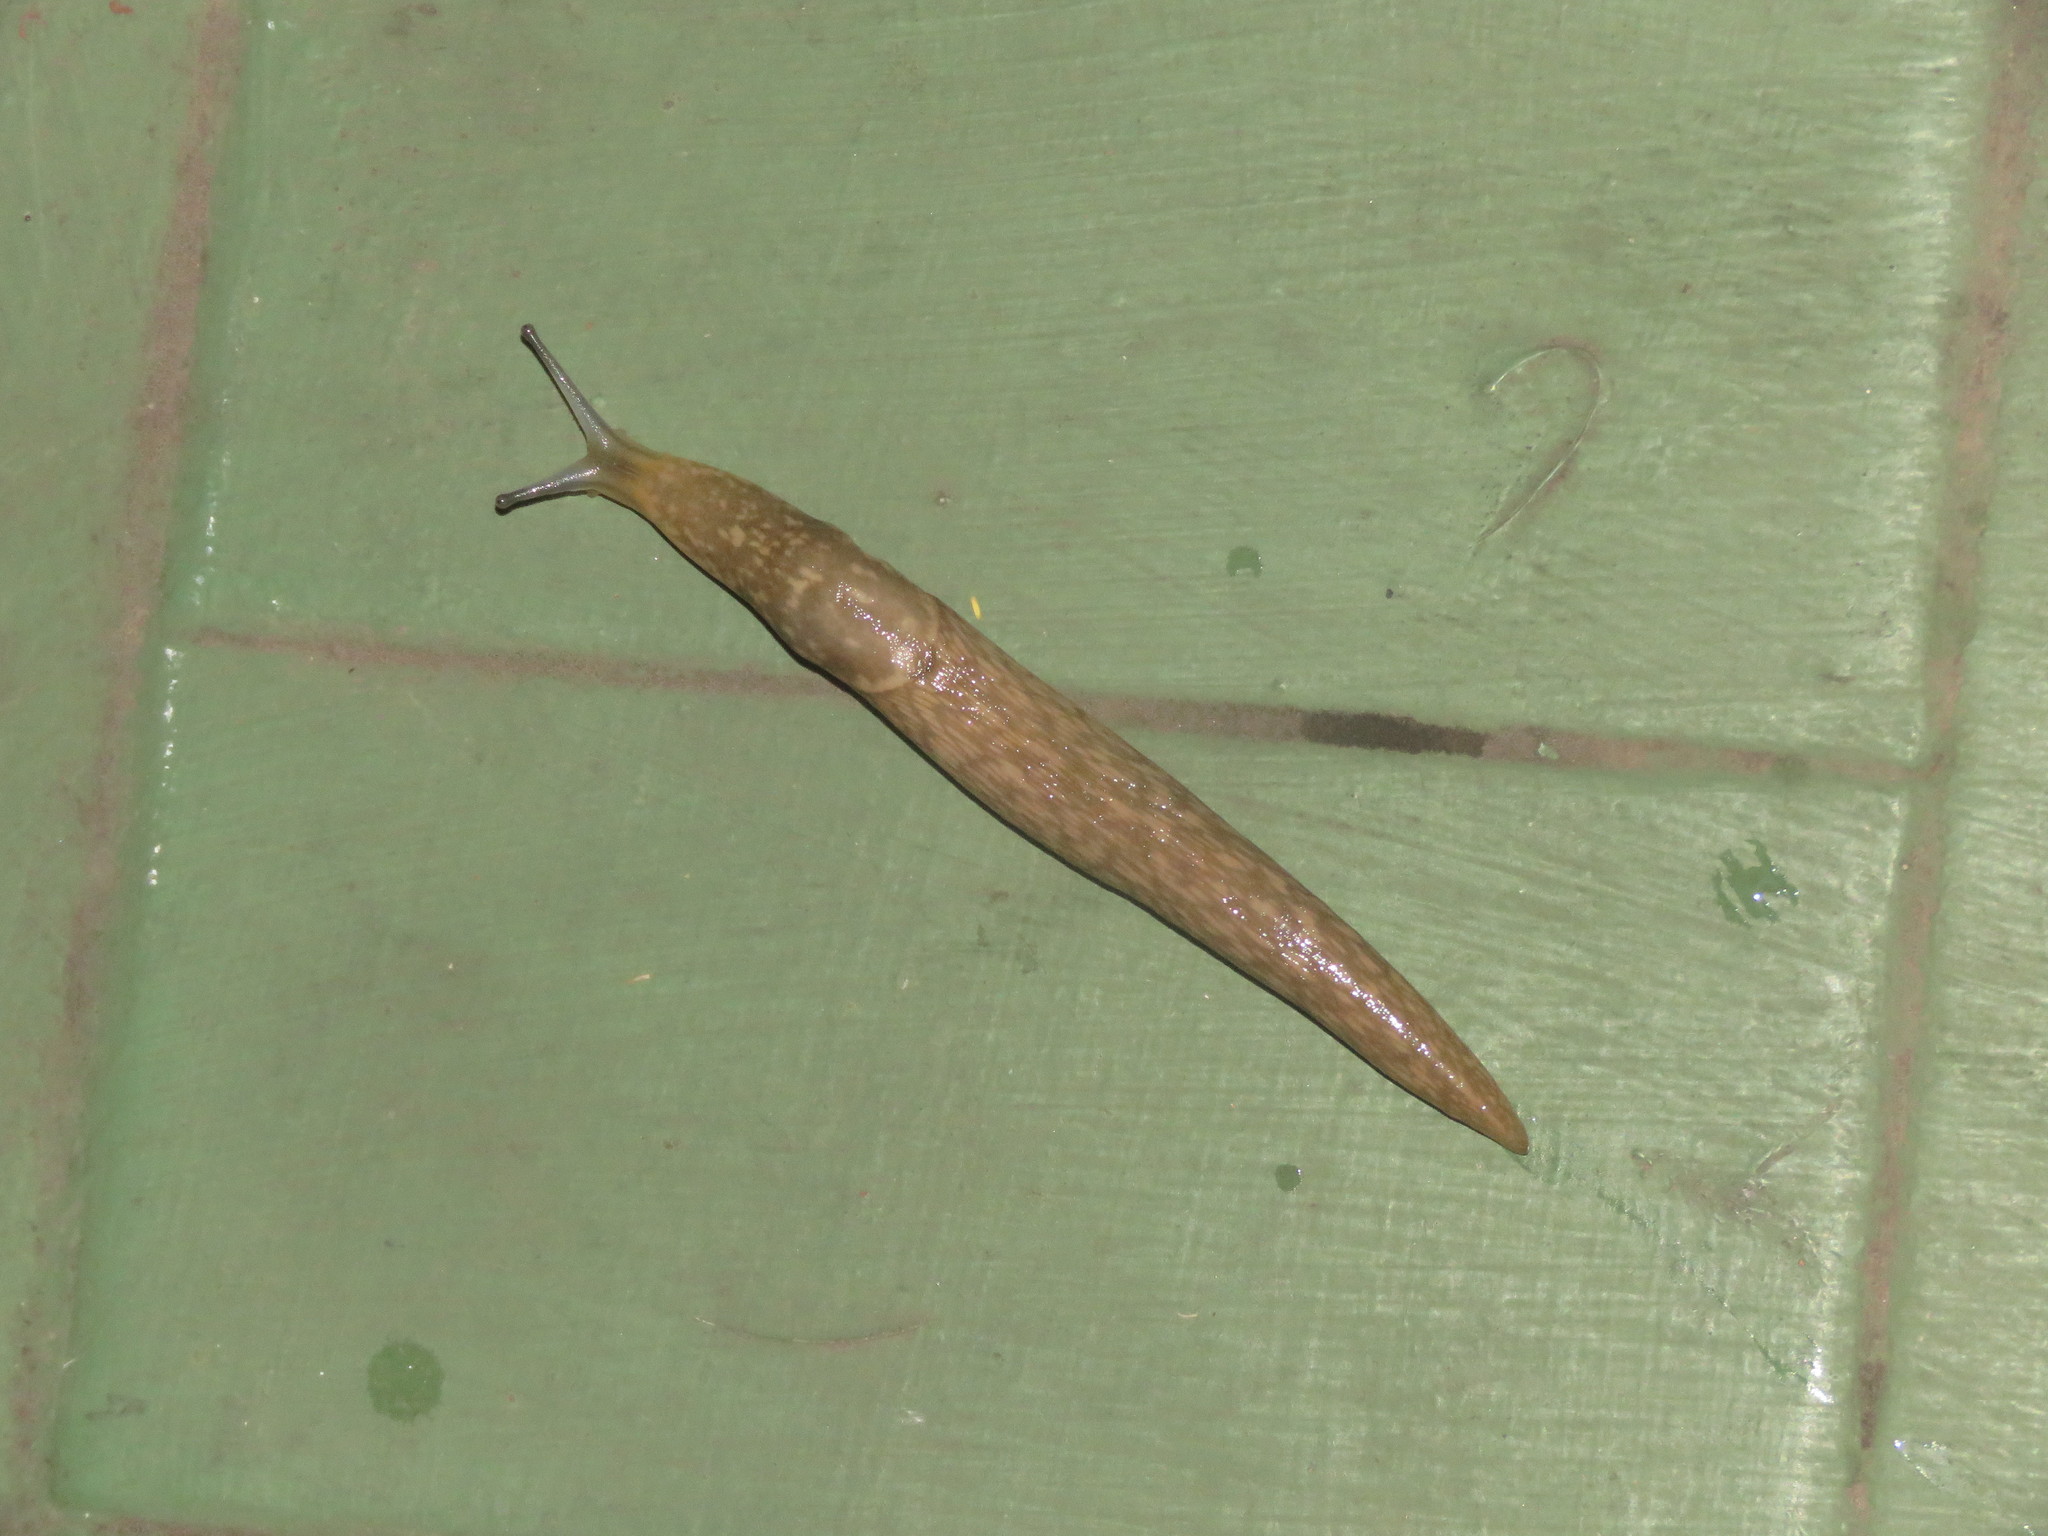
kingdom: Animalia
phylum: Mollusca
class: Gastropoda
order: Stylommatophora
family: Limacidae
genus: Limacus
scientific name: Limacus flavus
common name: Yellow gardenslug
